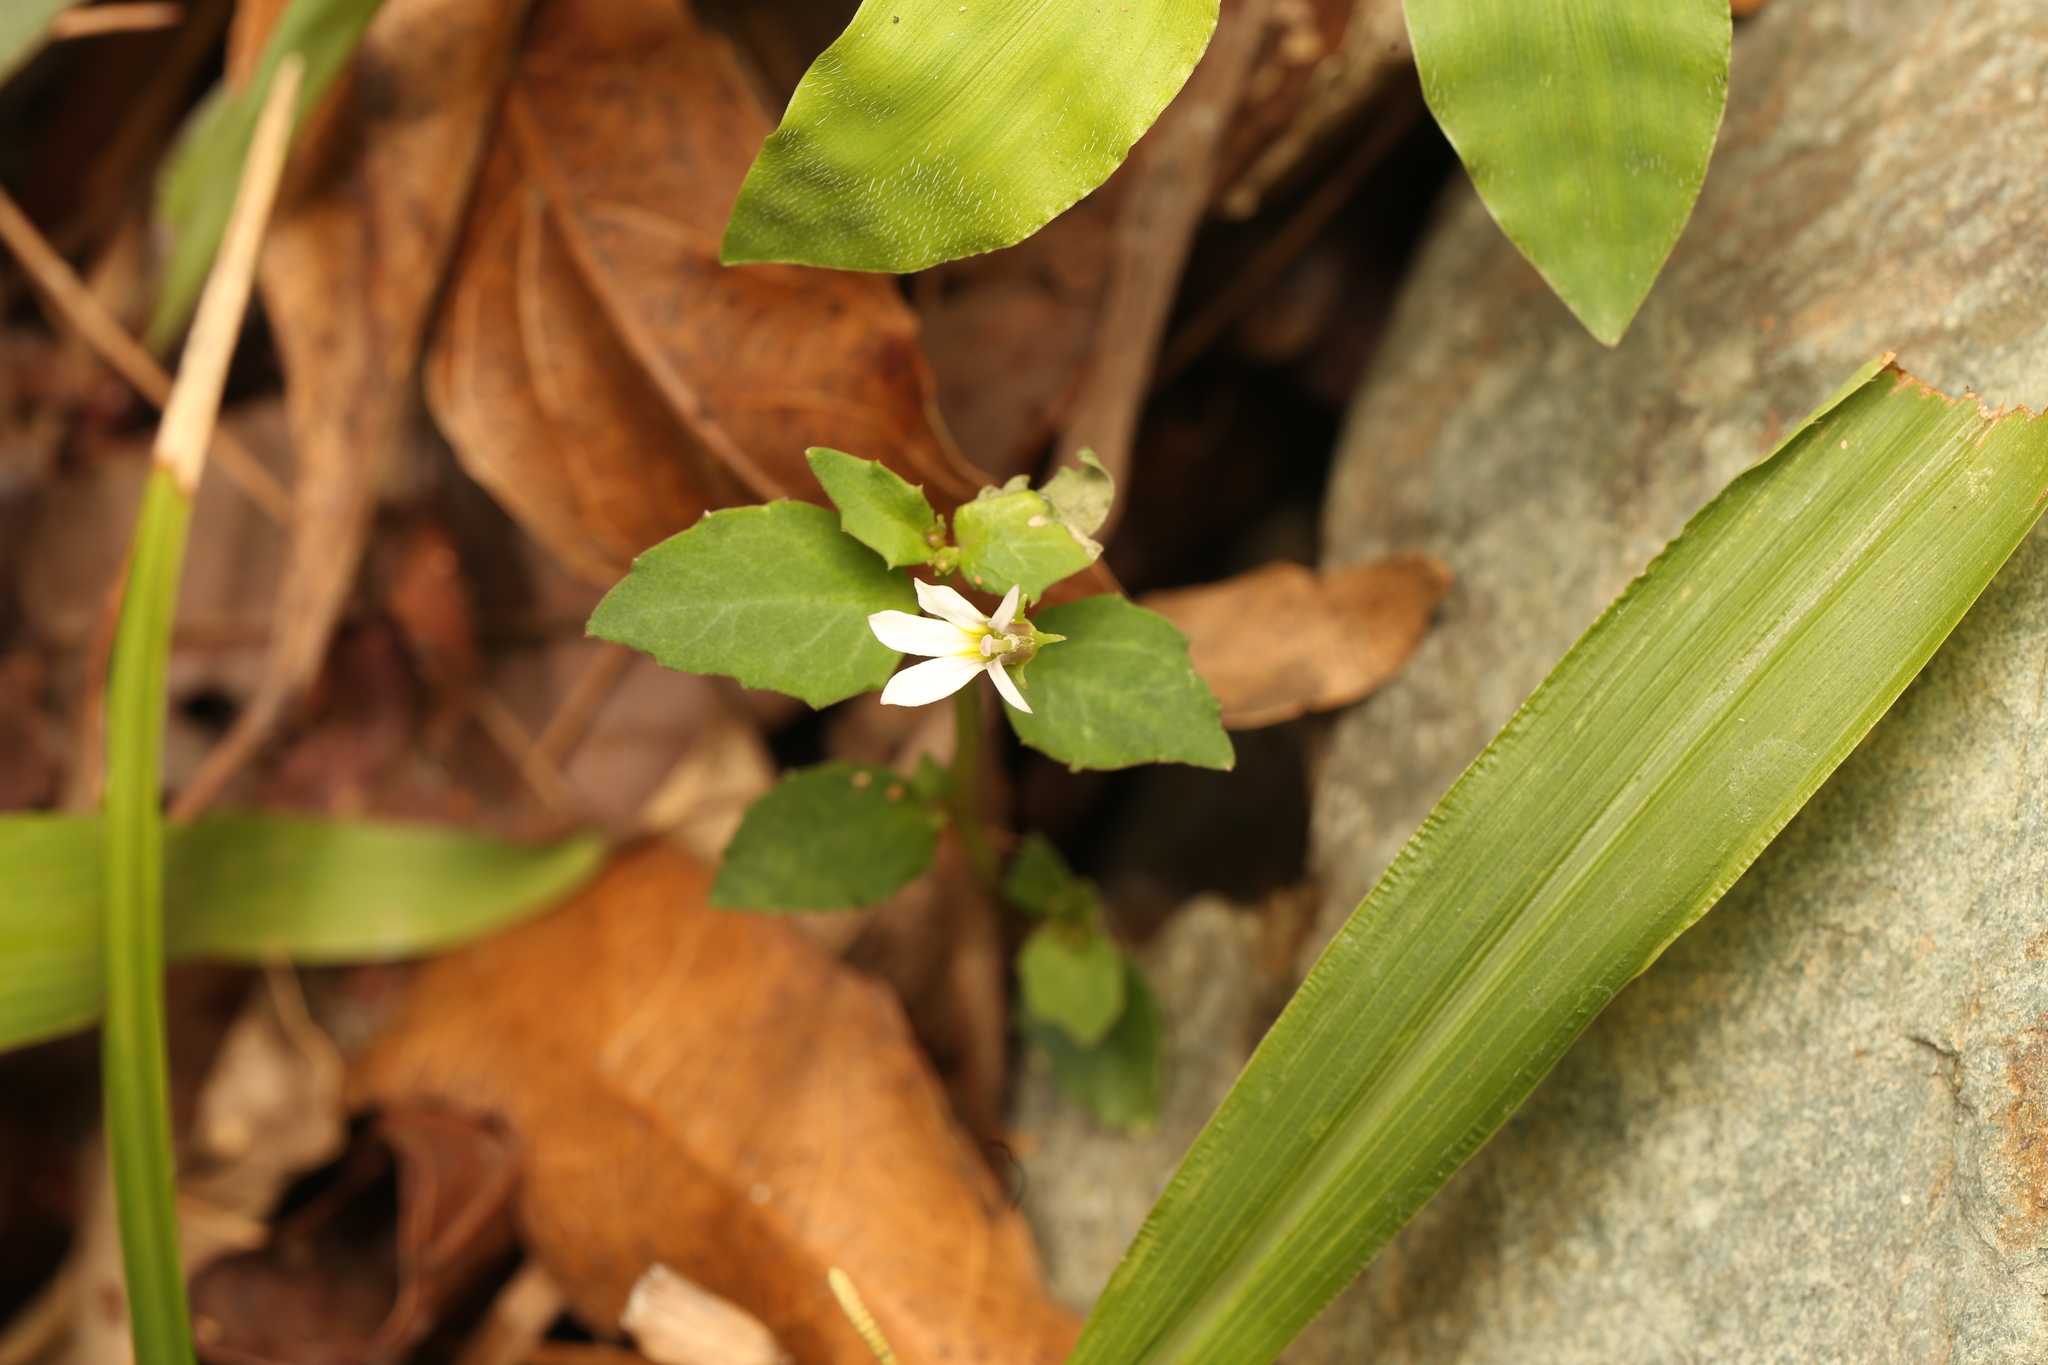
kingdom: Plantae
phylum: Tracheophyta
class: Magnoliopsida
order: Asterales
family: Campanulaceae
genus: Lobelia
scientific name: Lobelia purpurascens
